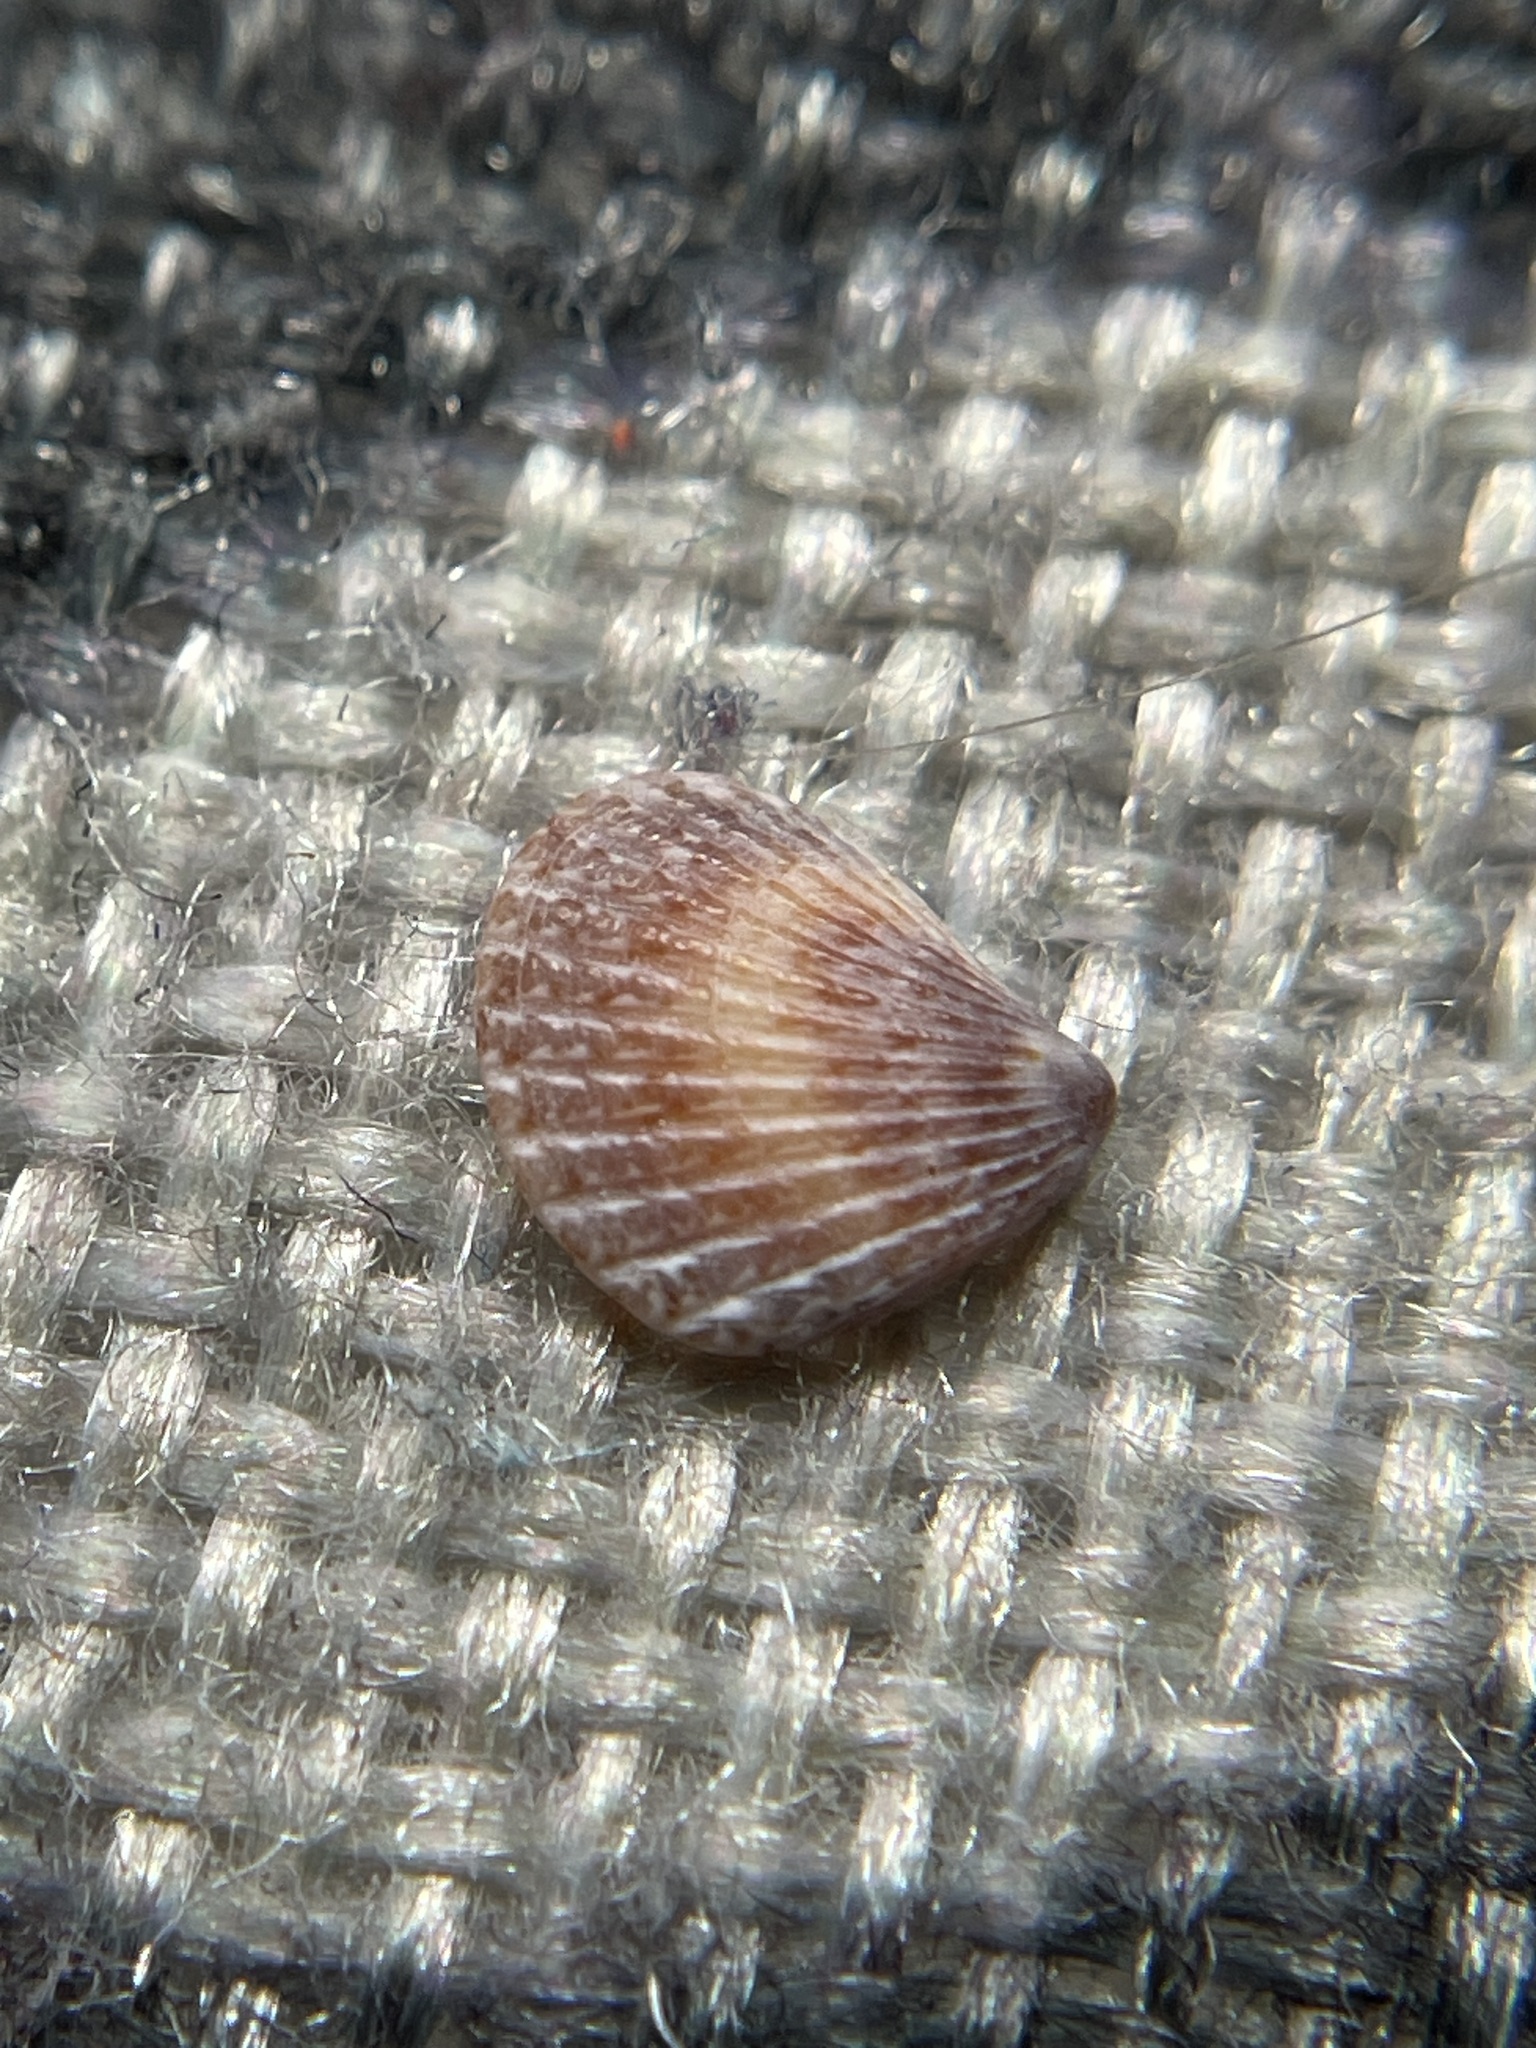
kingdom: Animalia
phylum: Mollusca
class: Bivalvia
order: Carditida
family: Carditidae
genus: Pteromeris
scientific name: Pteromeris perplana
